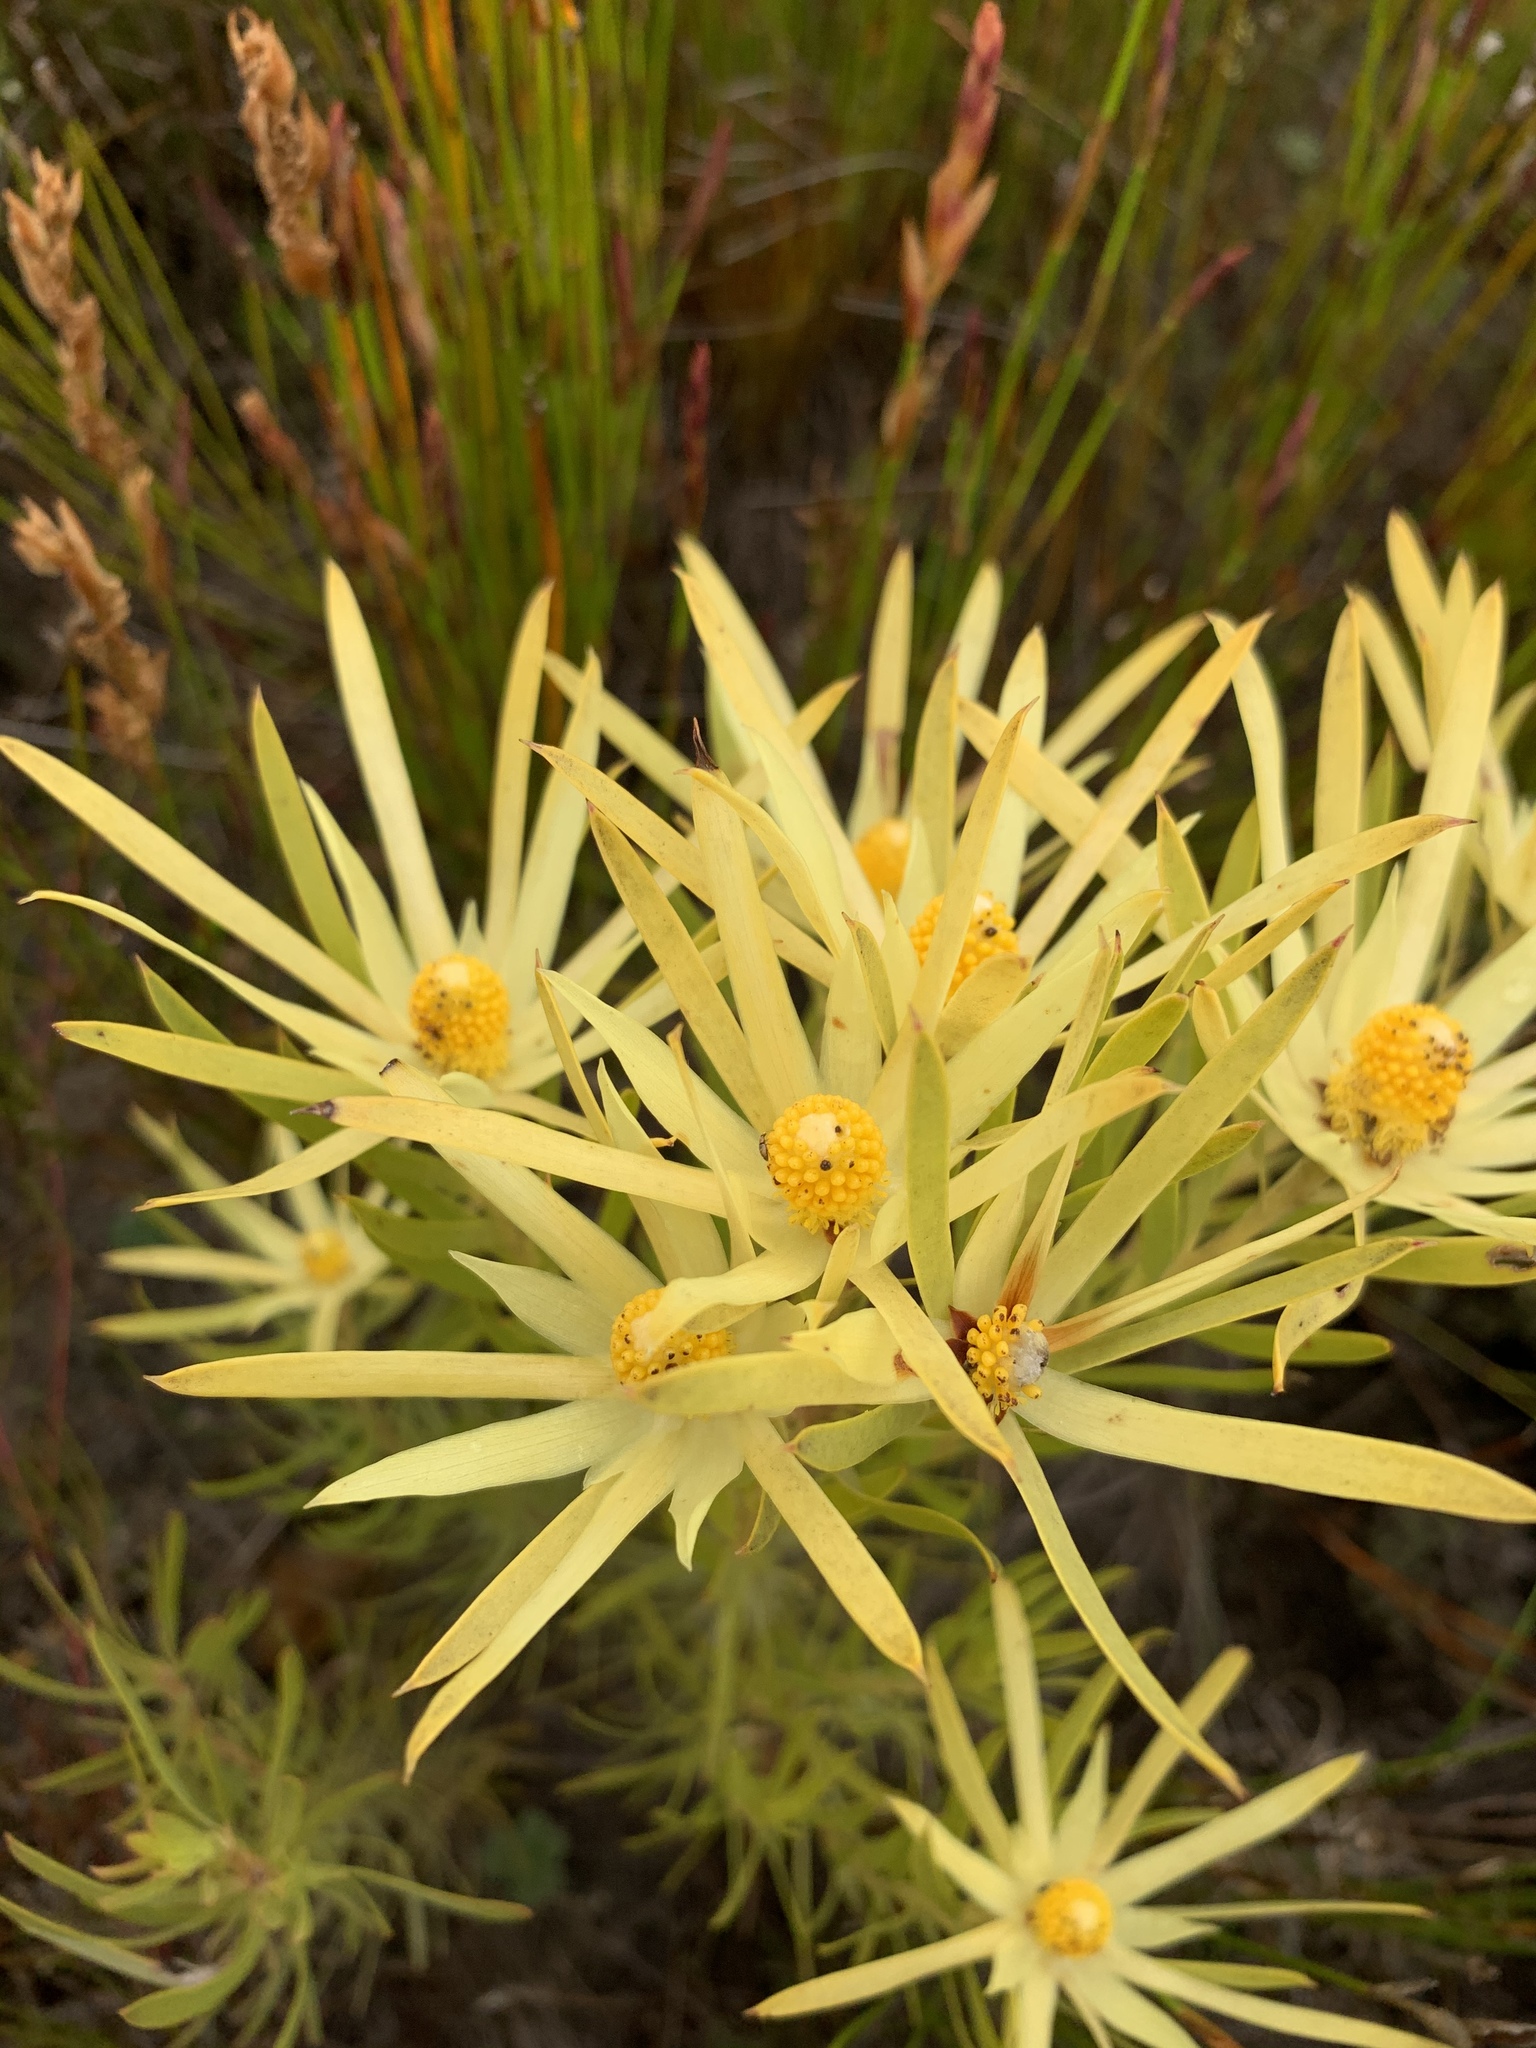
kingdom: Plantae
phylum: Tracheophyta
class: Magnoliopsida
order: Proteales
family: Proteaceae
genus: Leucadendron
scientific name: Leucadendron xanthoconus
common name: Sickle-leaf conebush
